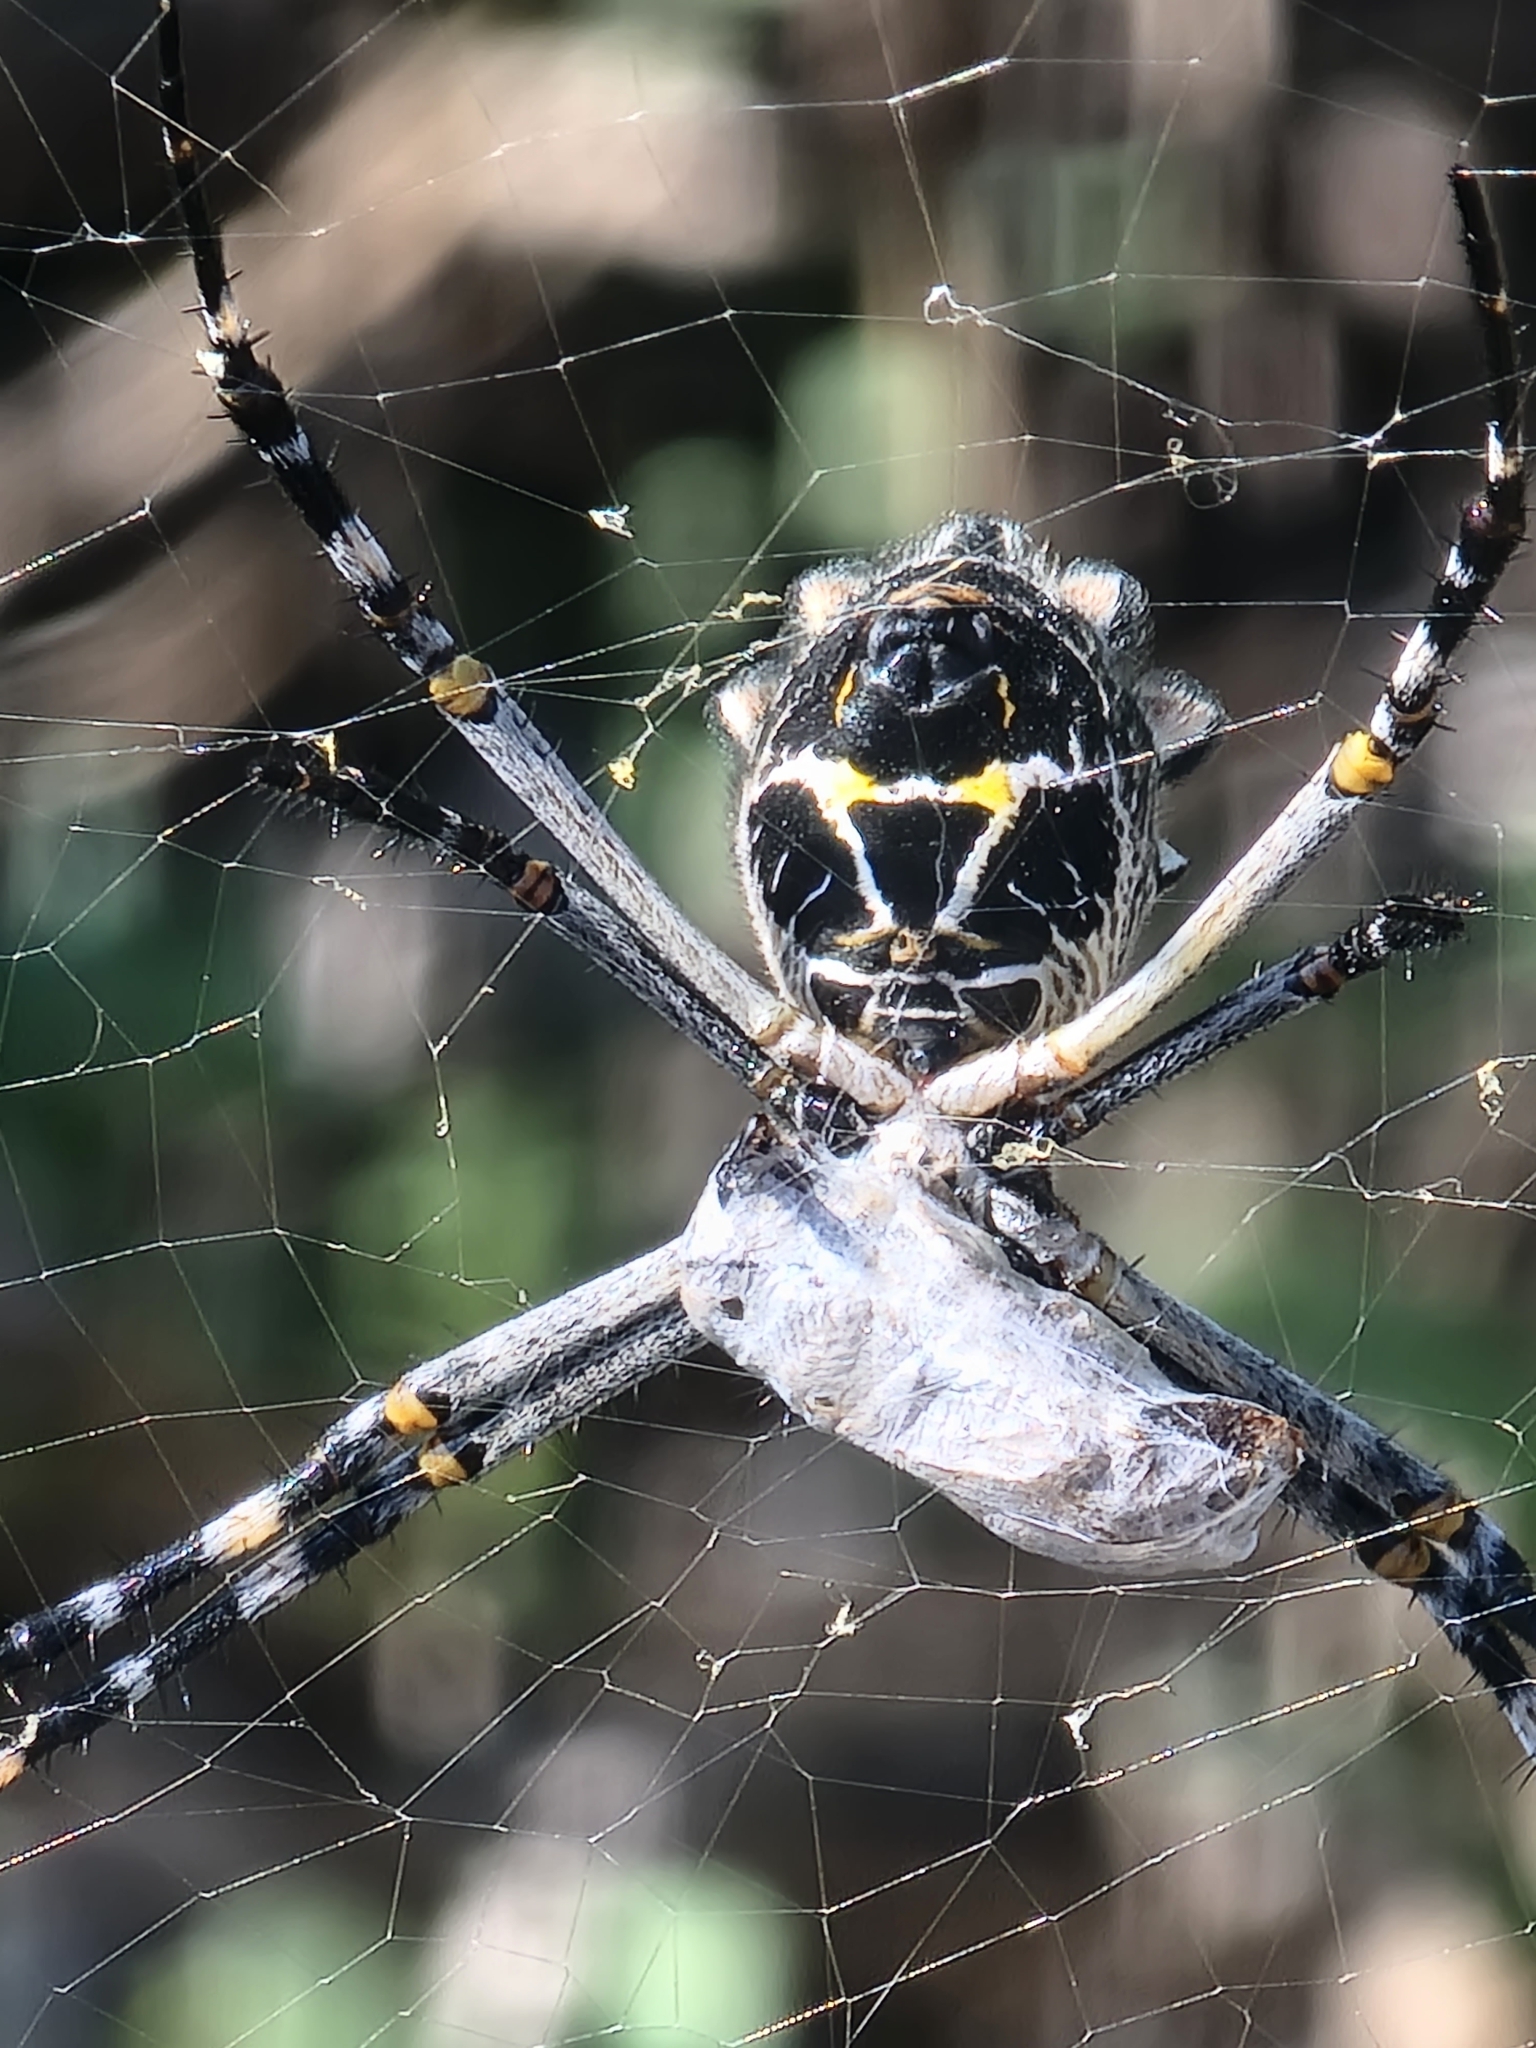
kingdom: Animalia
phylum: Arthropoda
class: Arachnida
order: Araneae
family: Araneidae
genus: Argiope
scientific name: Argiope argentata
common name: Orb weavers
